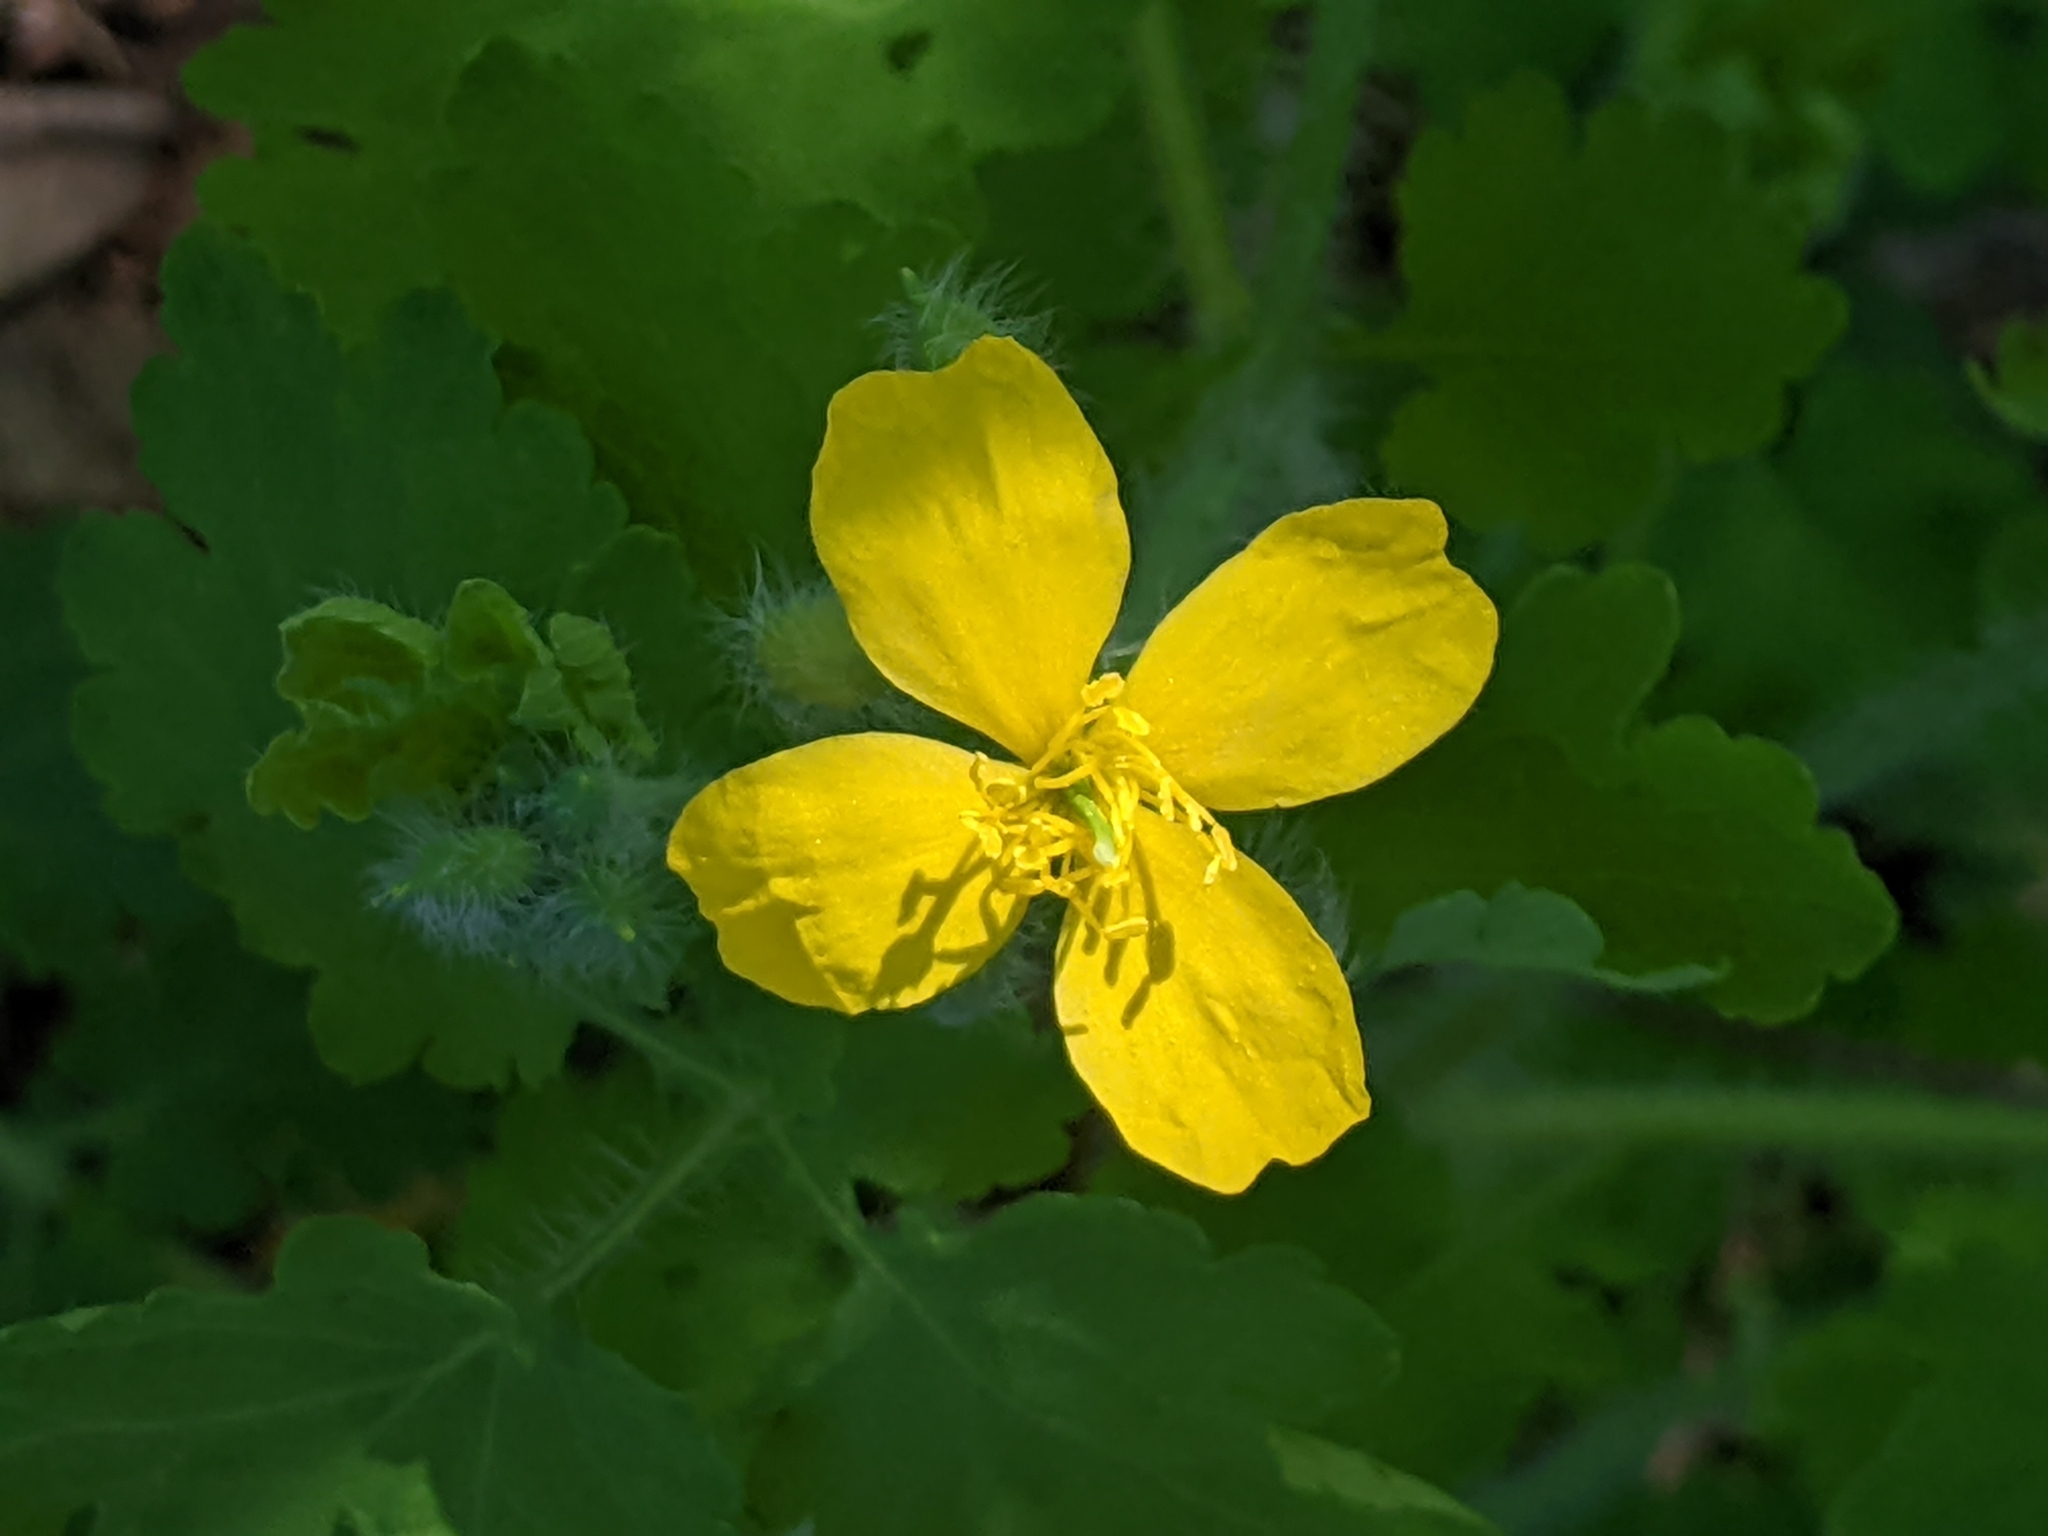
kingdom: Plantae
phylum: Tracheophyta
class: Magnoliopsida
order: Ranunculales
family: Papaveraceae
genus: Chelidonium
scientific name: Chelidonium majus
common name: Greater celandine
